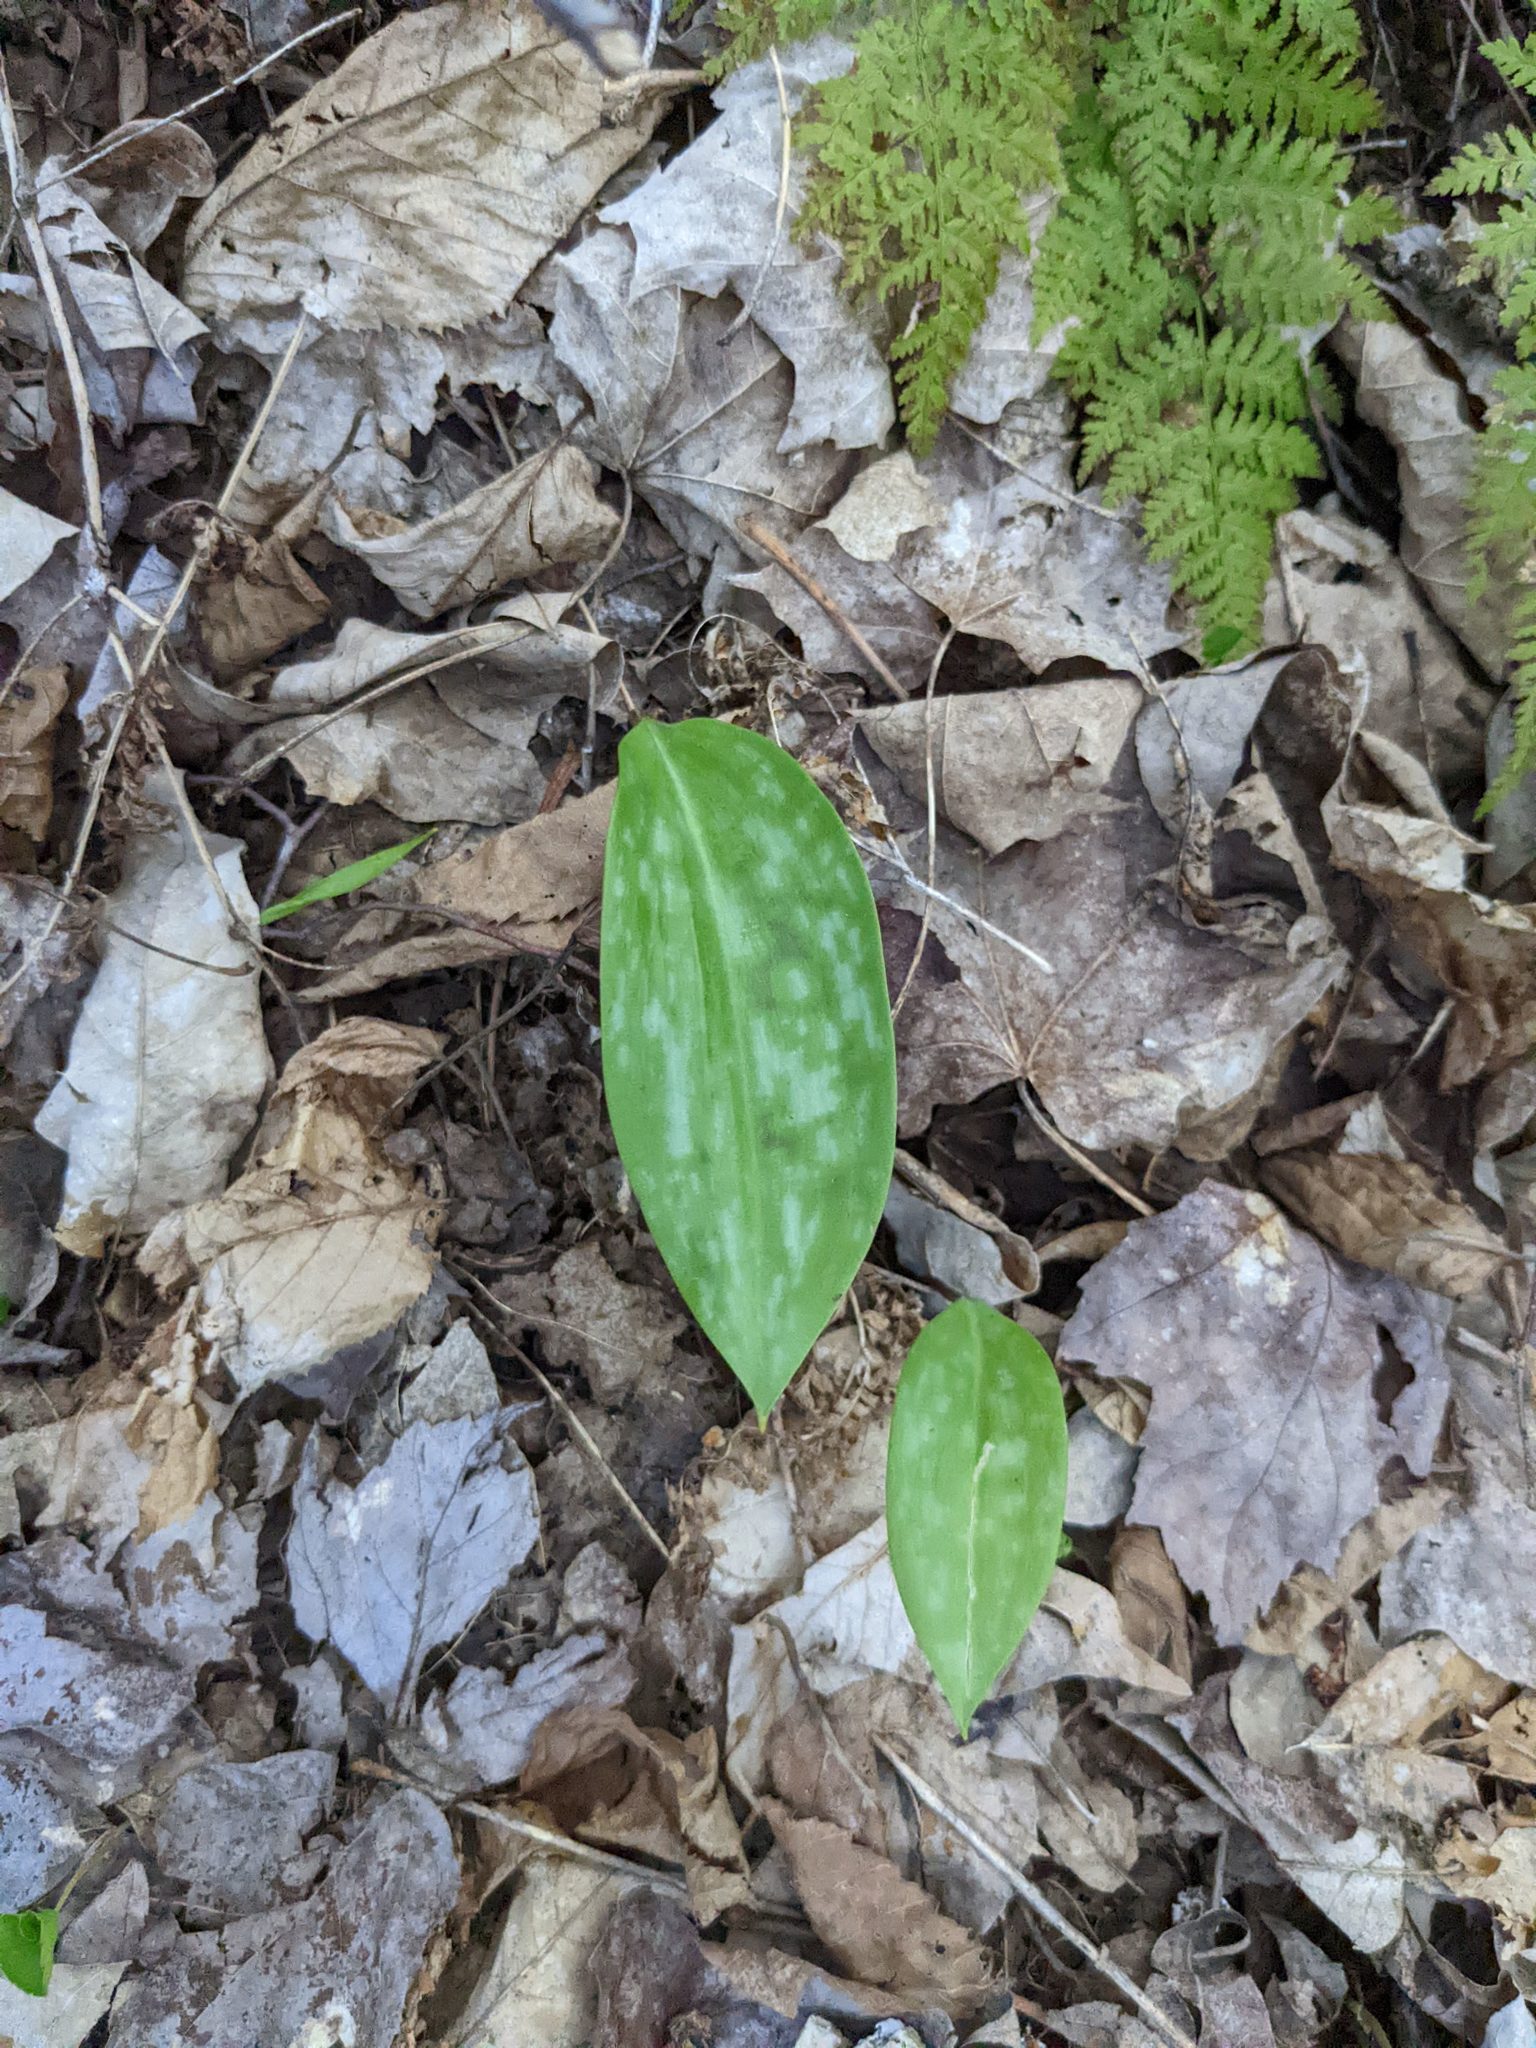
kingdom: Plantae
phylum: Tracheophyta
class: Liliopsida
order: Liliales
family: Liliaceae
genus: Erythronium
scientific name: Erythronium americanum
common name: Yellow adder's-tongue
